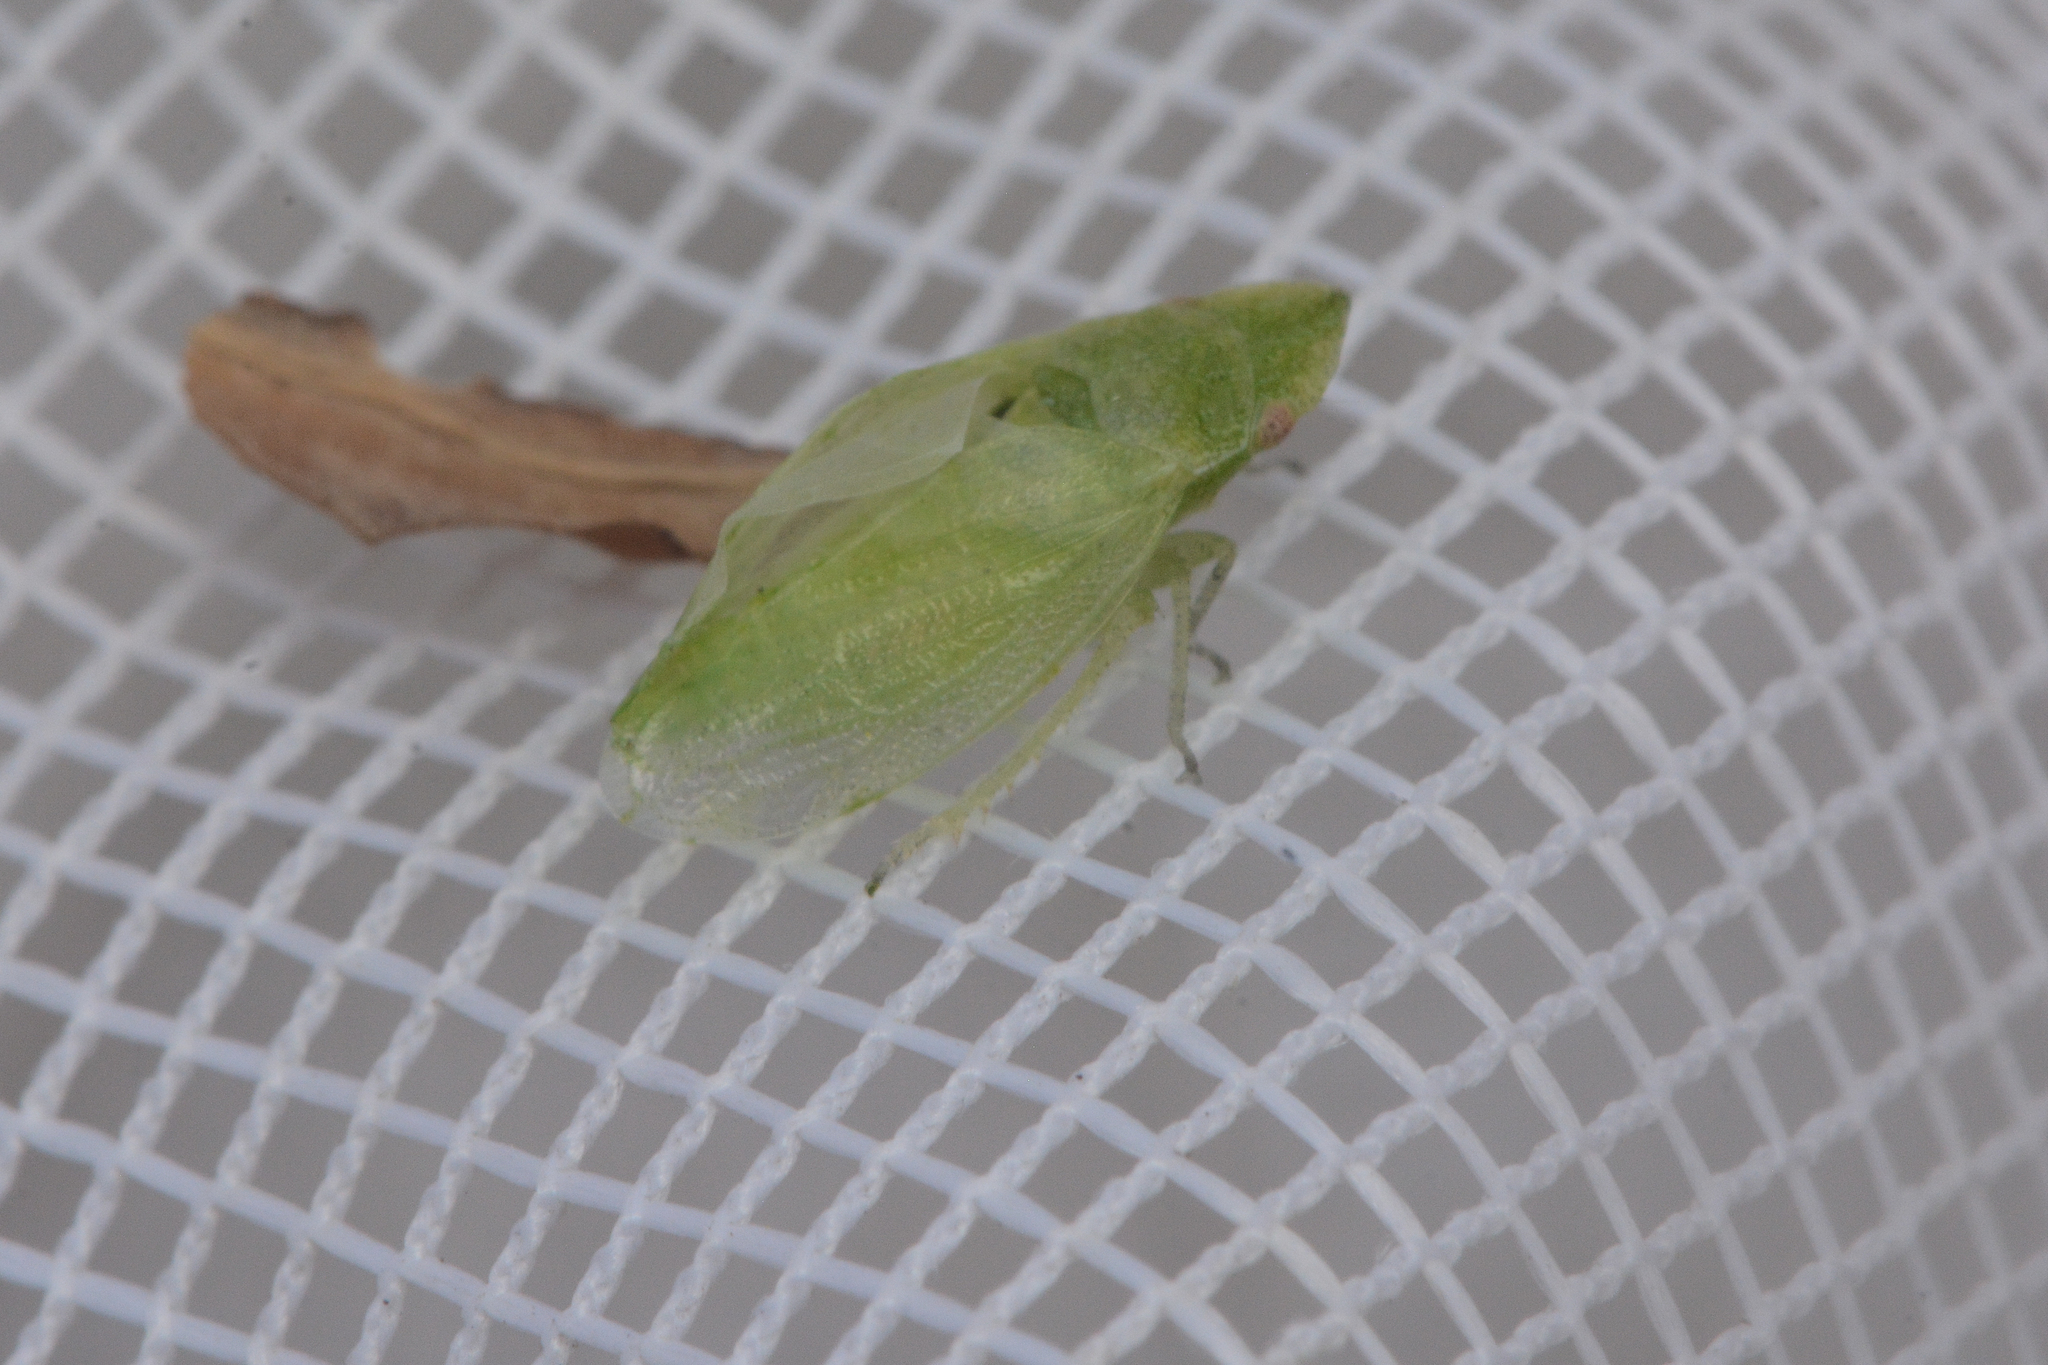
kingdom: Animalia
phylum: Arthropoda
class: Insecta
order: Hemiptera
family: Cicadellidae
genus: Xerophloea
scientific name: Xerophloea peltata
